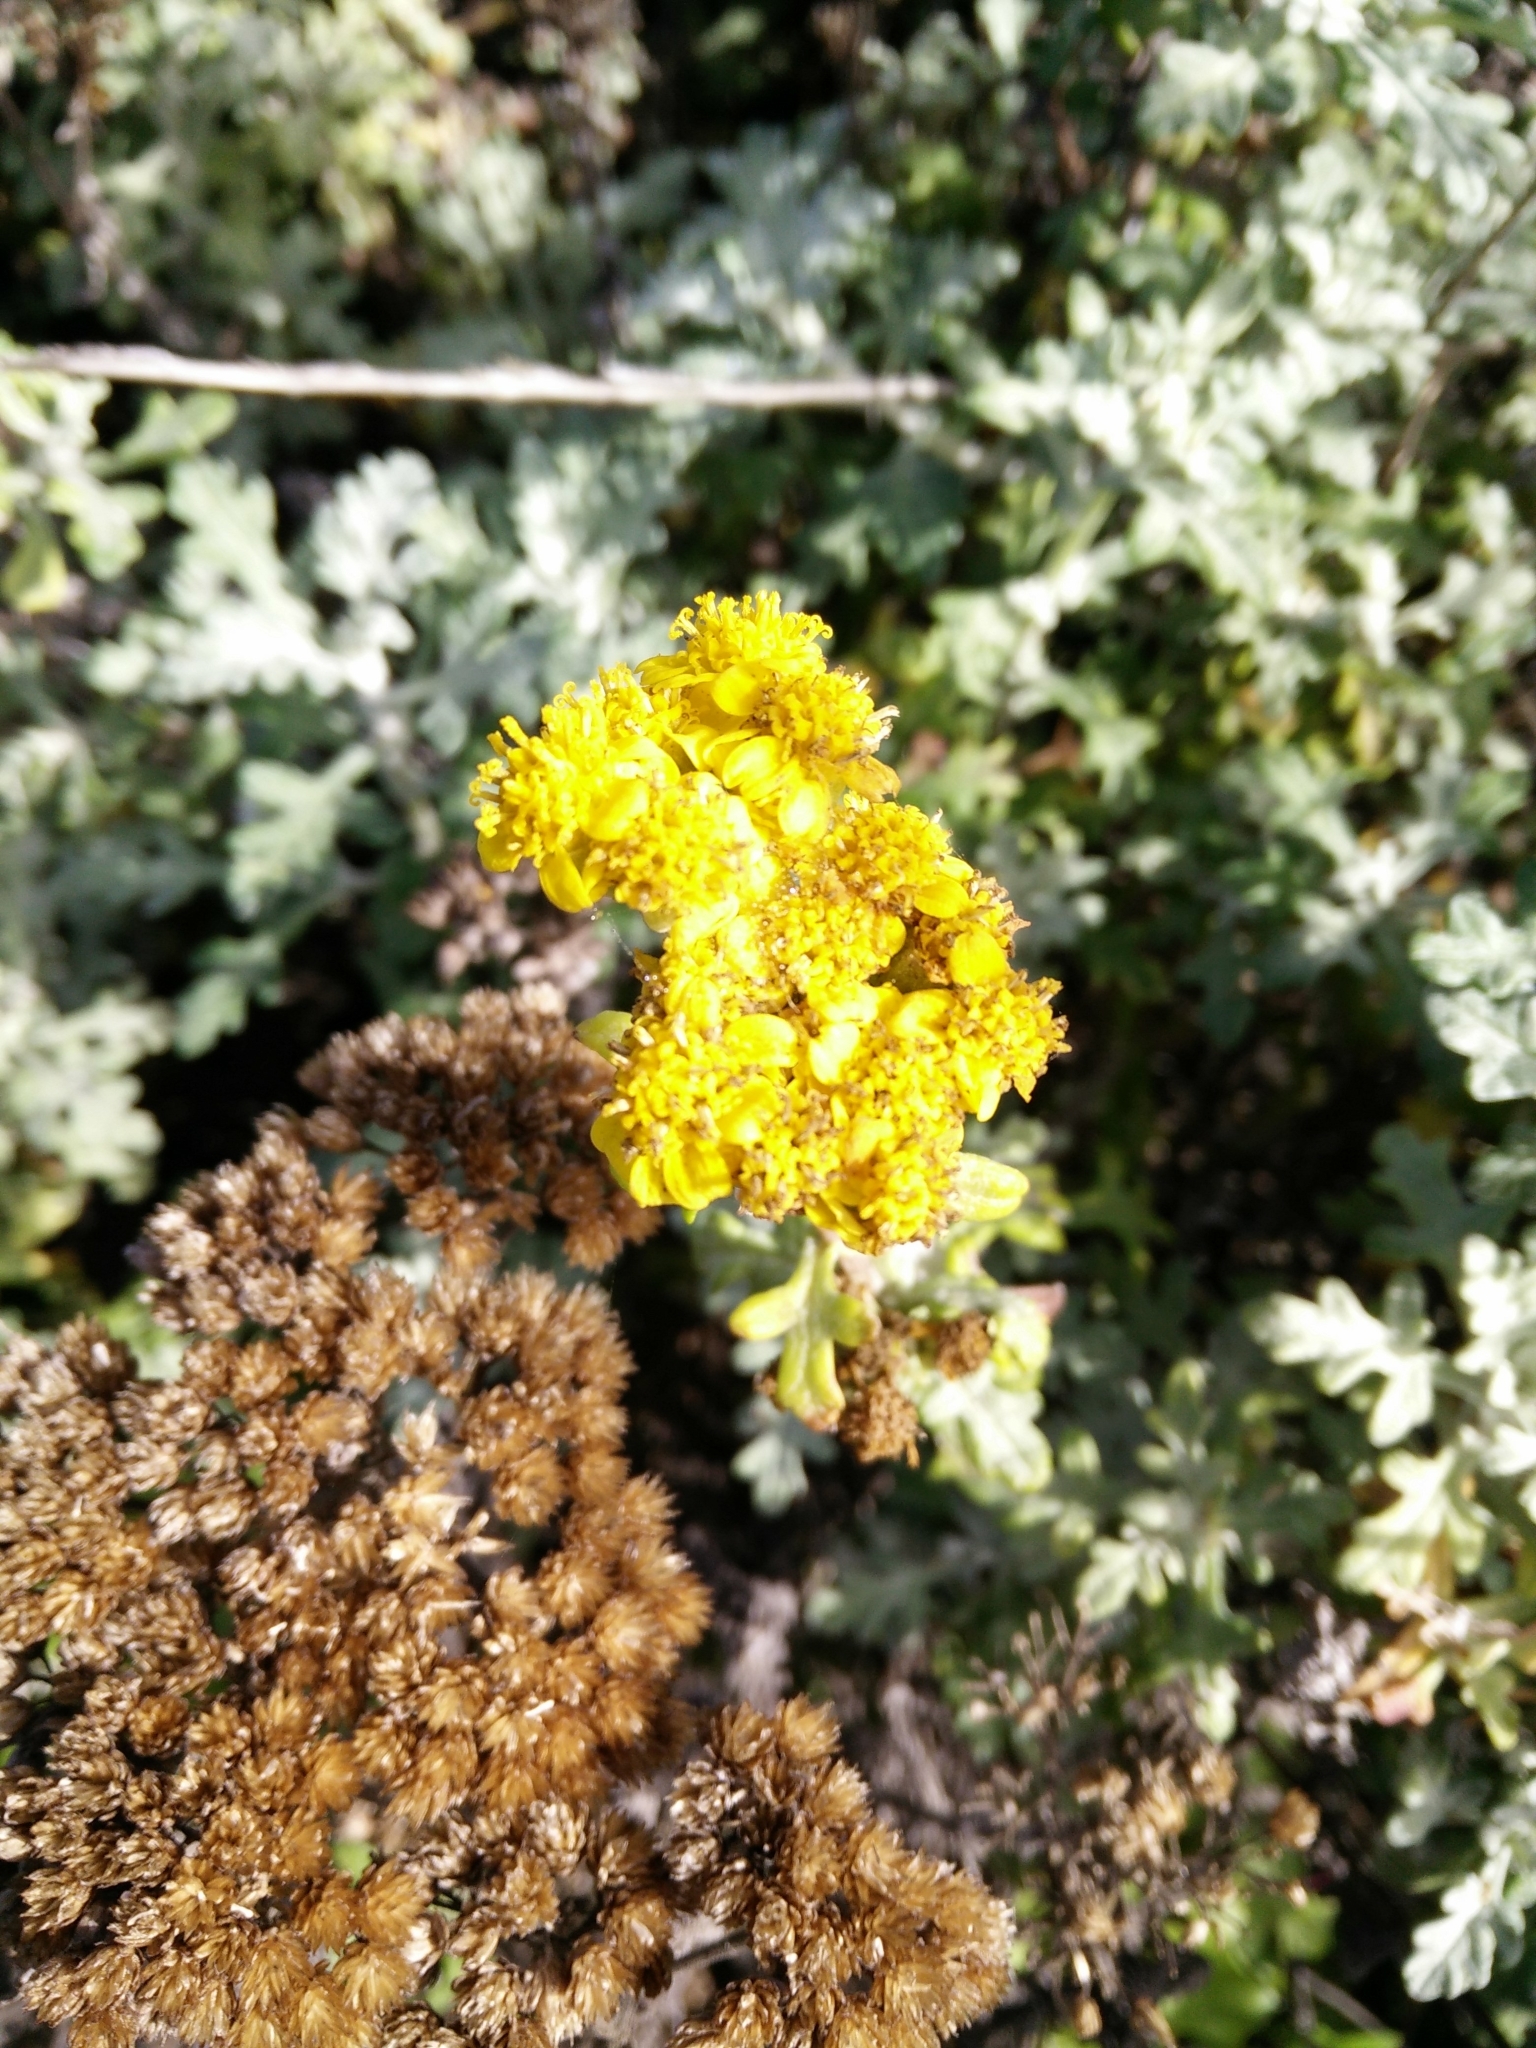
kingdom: Plantae
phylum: Tracheophyta
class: Magnoliopsida
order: Asterales
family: Asteraceae
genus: Eriophyllum
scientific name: Eriophyllum staechadifolium
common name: Lizardtail
